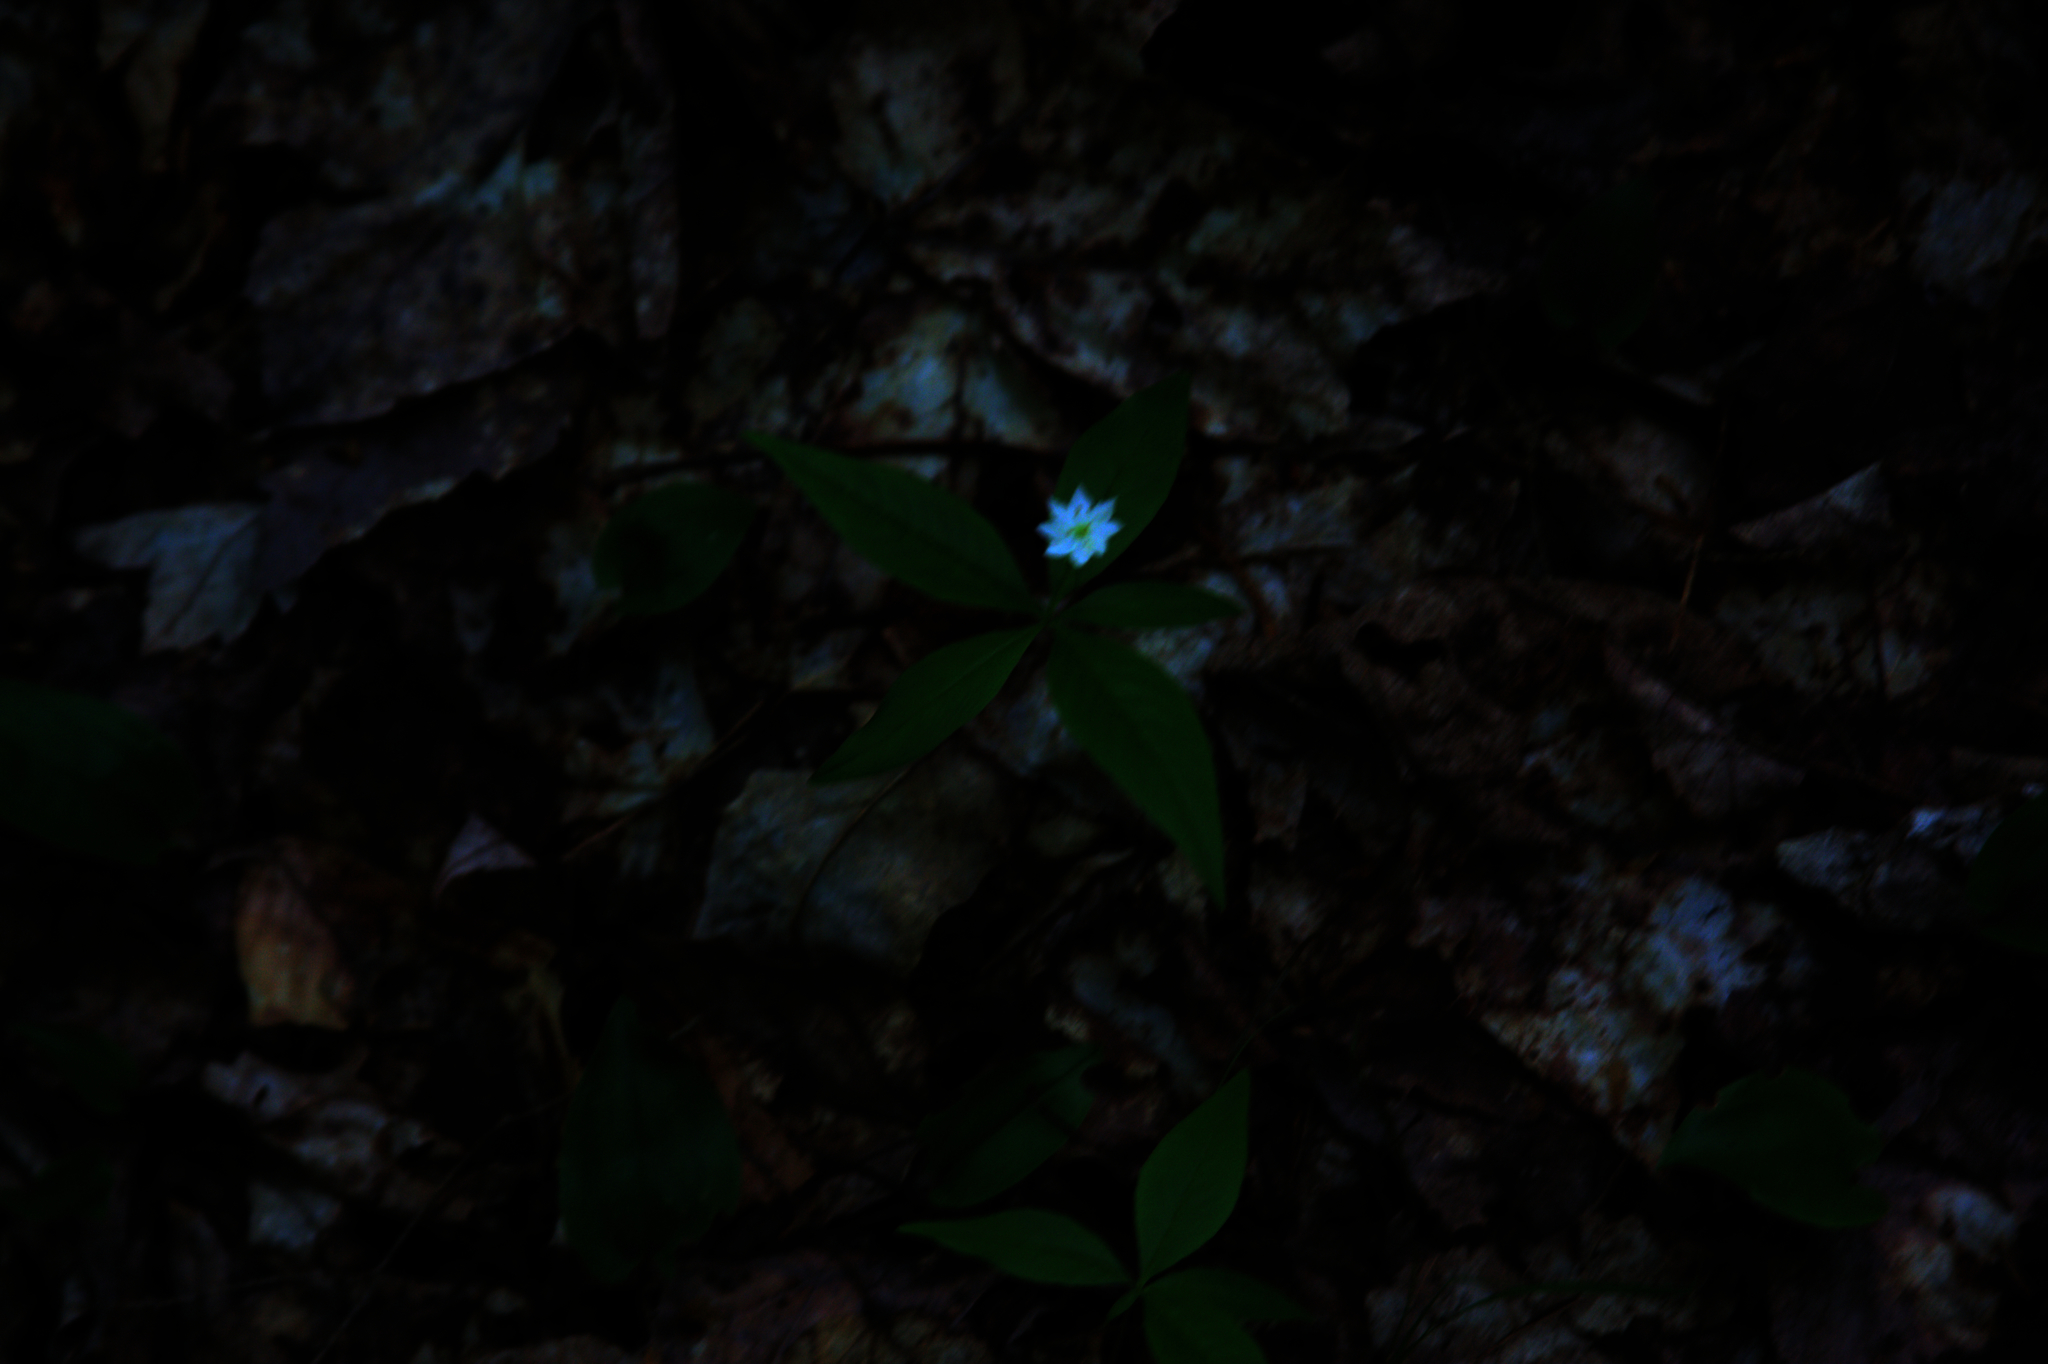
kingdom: Plantae
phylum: Tracheophyta
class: Magnoliopsida
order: Ericales
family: Primulaceae
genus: Lysimachia
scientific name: Lysimachia borealis
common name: American starflower
